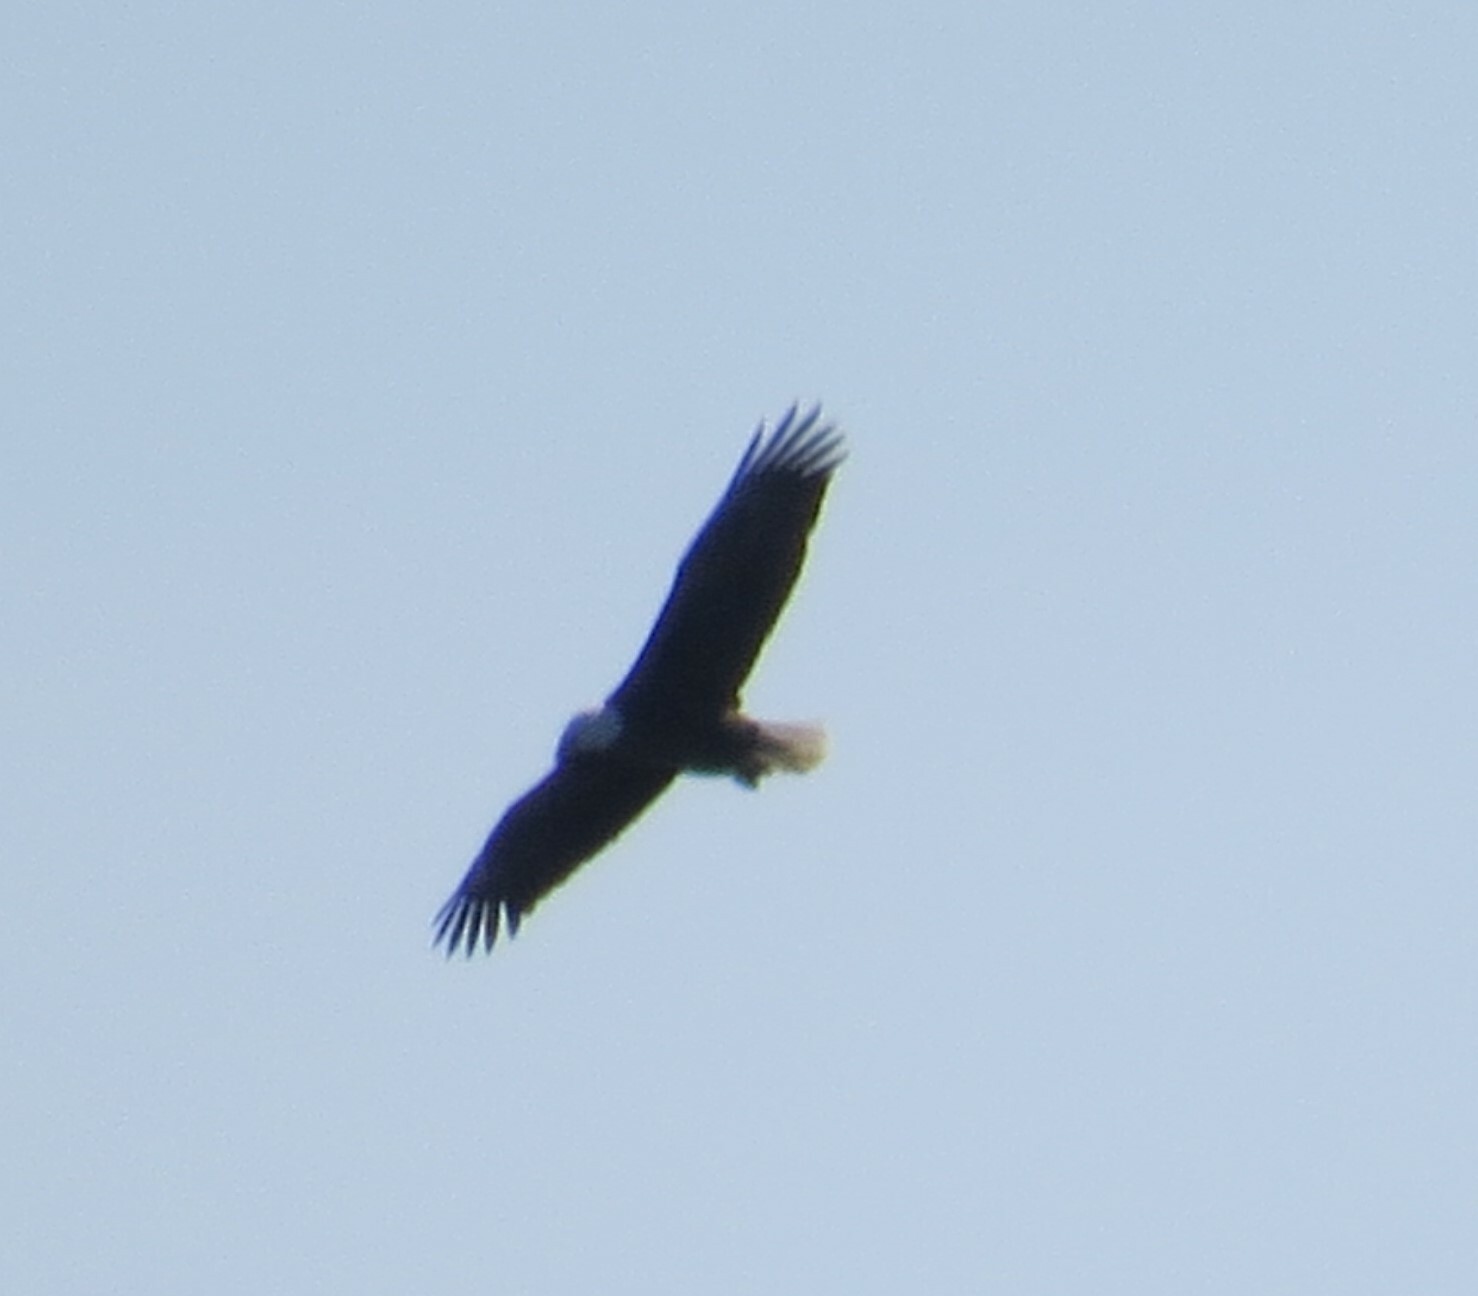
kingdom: Animalia
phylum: Chordata
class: Aves
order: Accipitriformes
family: Accipitridae
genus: Haliaeetus
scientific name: Haliaeetus leucocephalus
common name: Bald eagle
